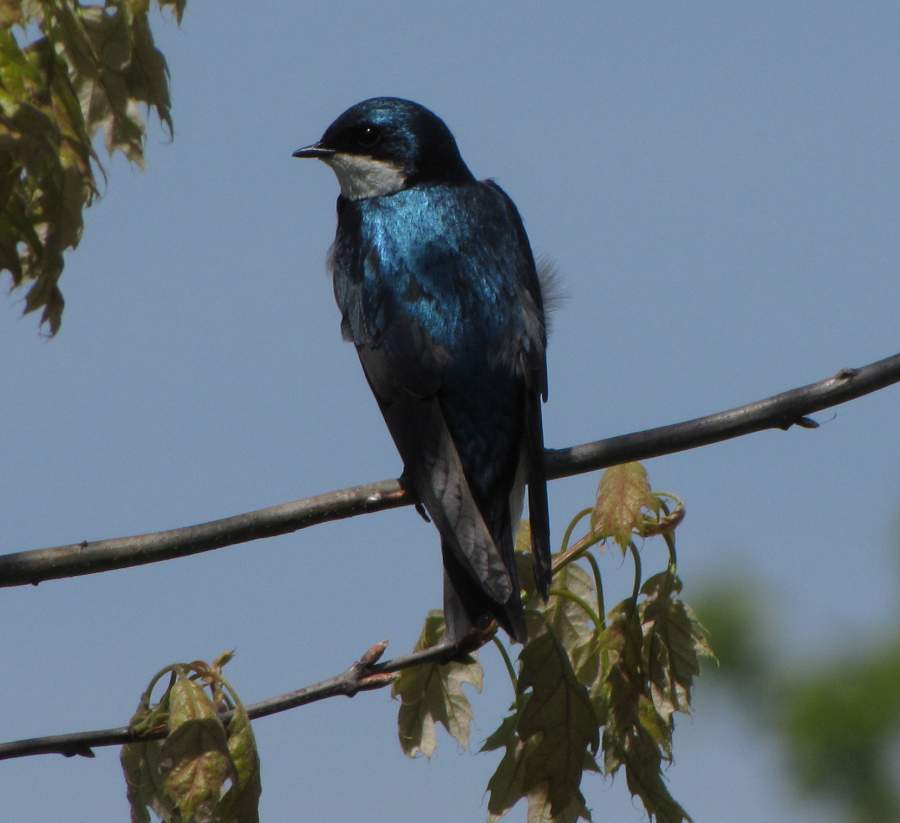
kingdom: Animalia
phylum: Chordata
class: Aves
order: Passeriformes
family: Hirundinidae
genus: Tachycineta
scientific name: Tachycineta bicolor
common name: Tree swallow
